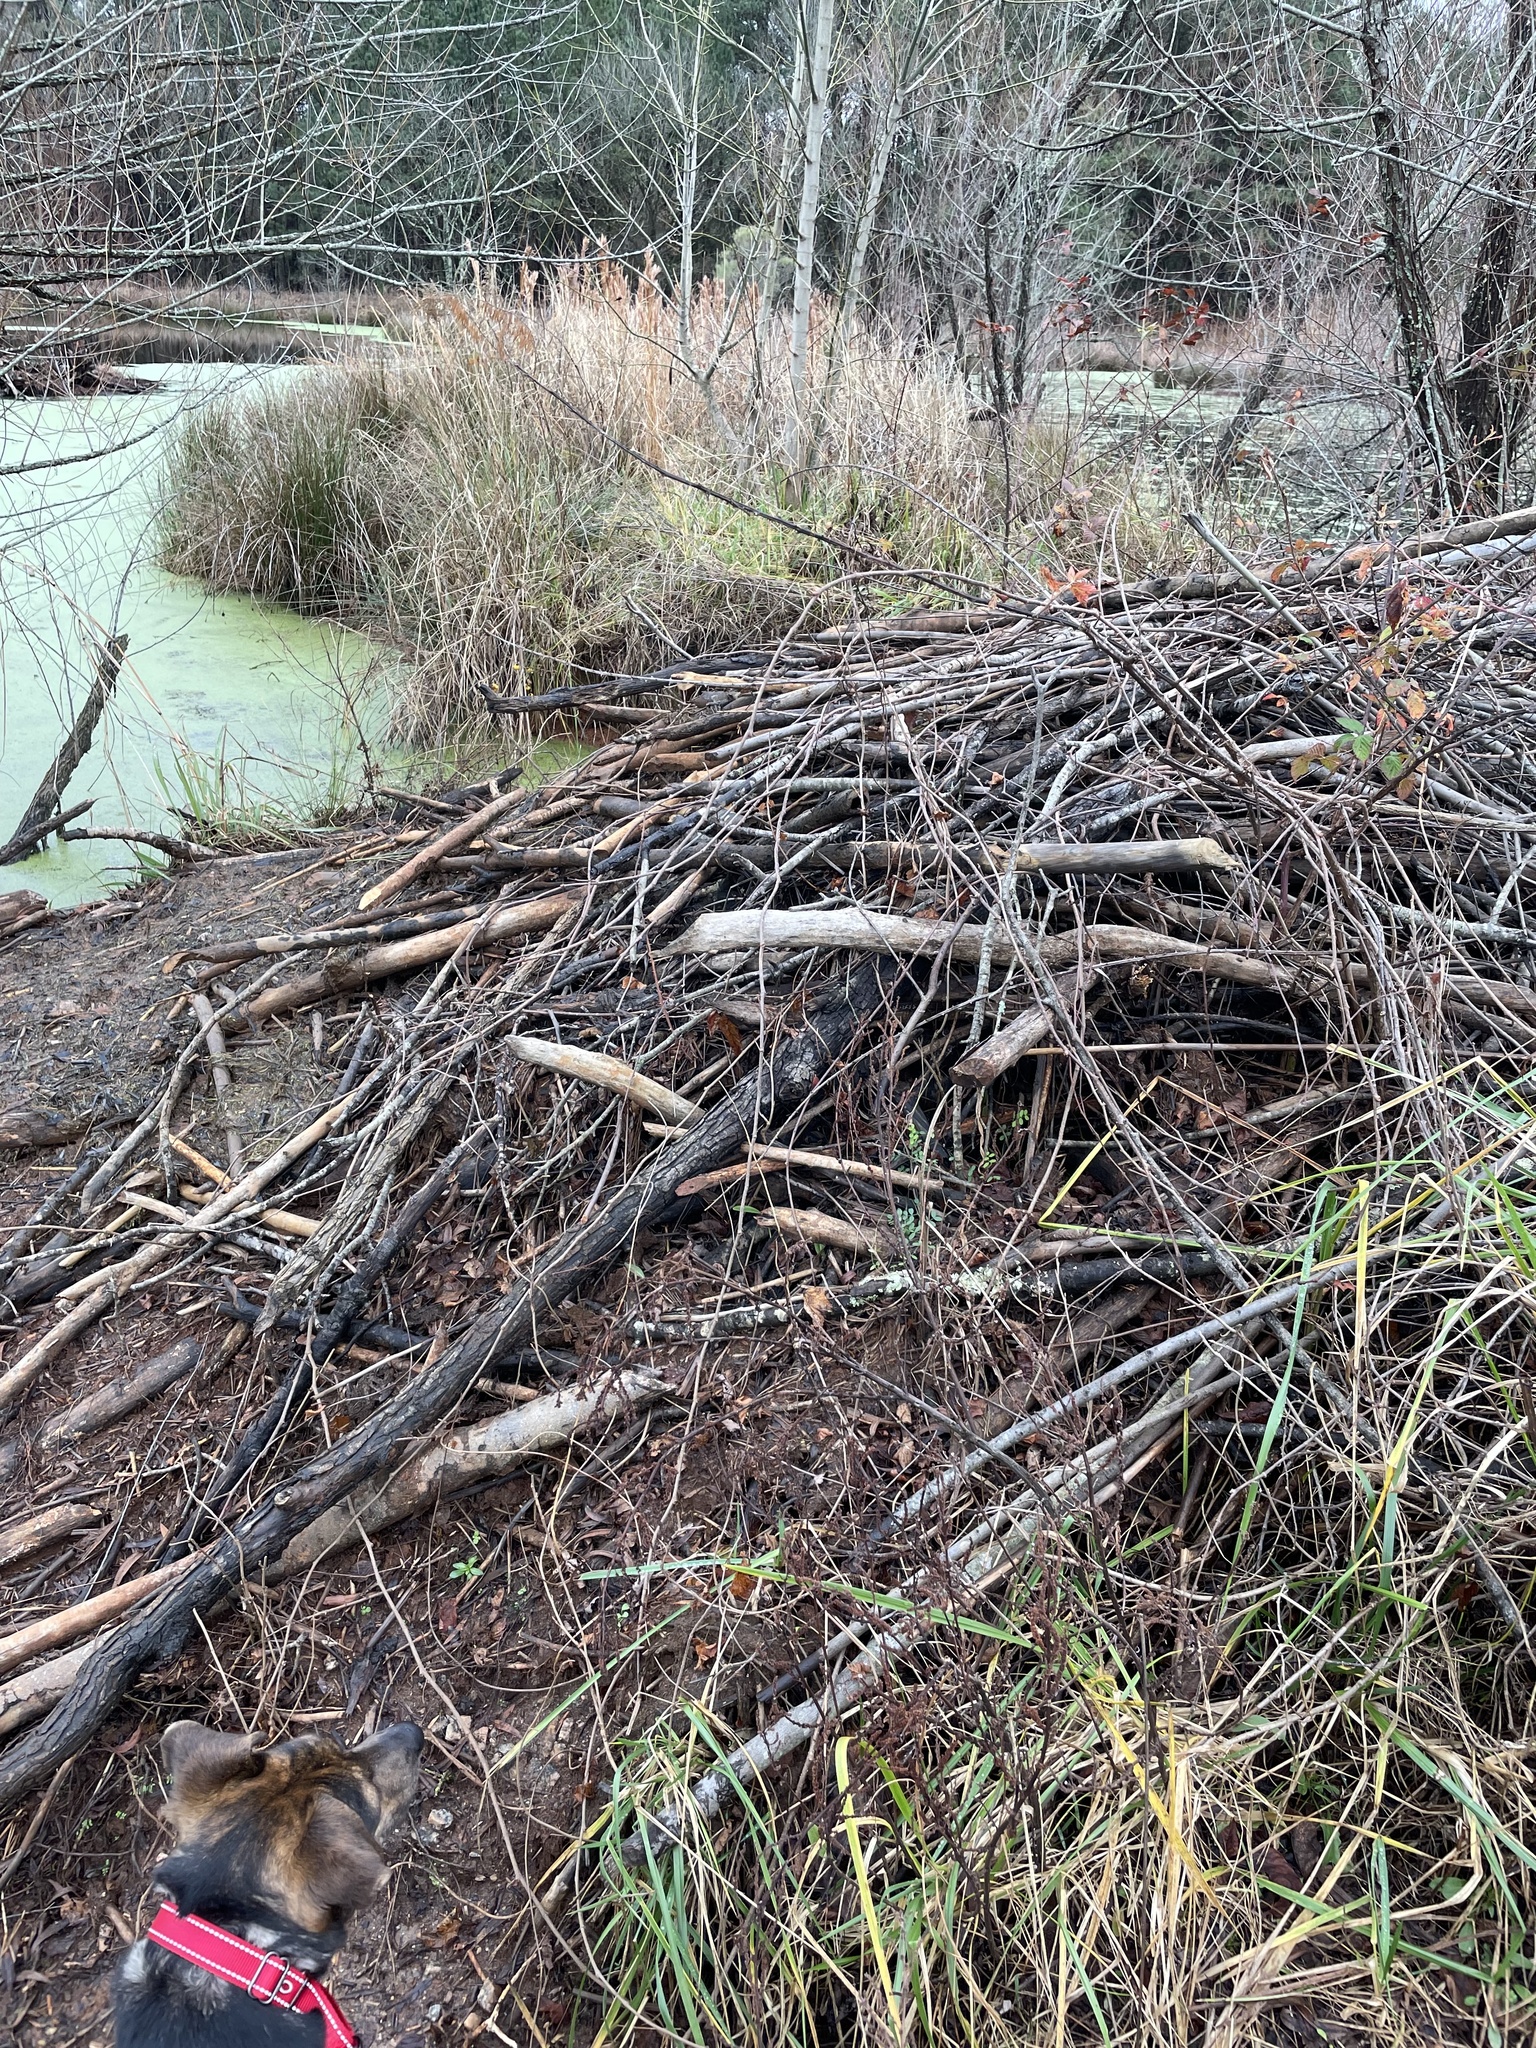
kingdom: Animalia
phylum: Chordata
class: Mammalia
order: Rodentia
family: Castoridae
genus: Castor
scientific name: Castor canadensis
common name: American beaver
